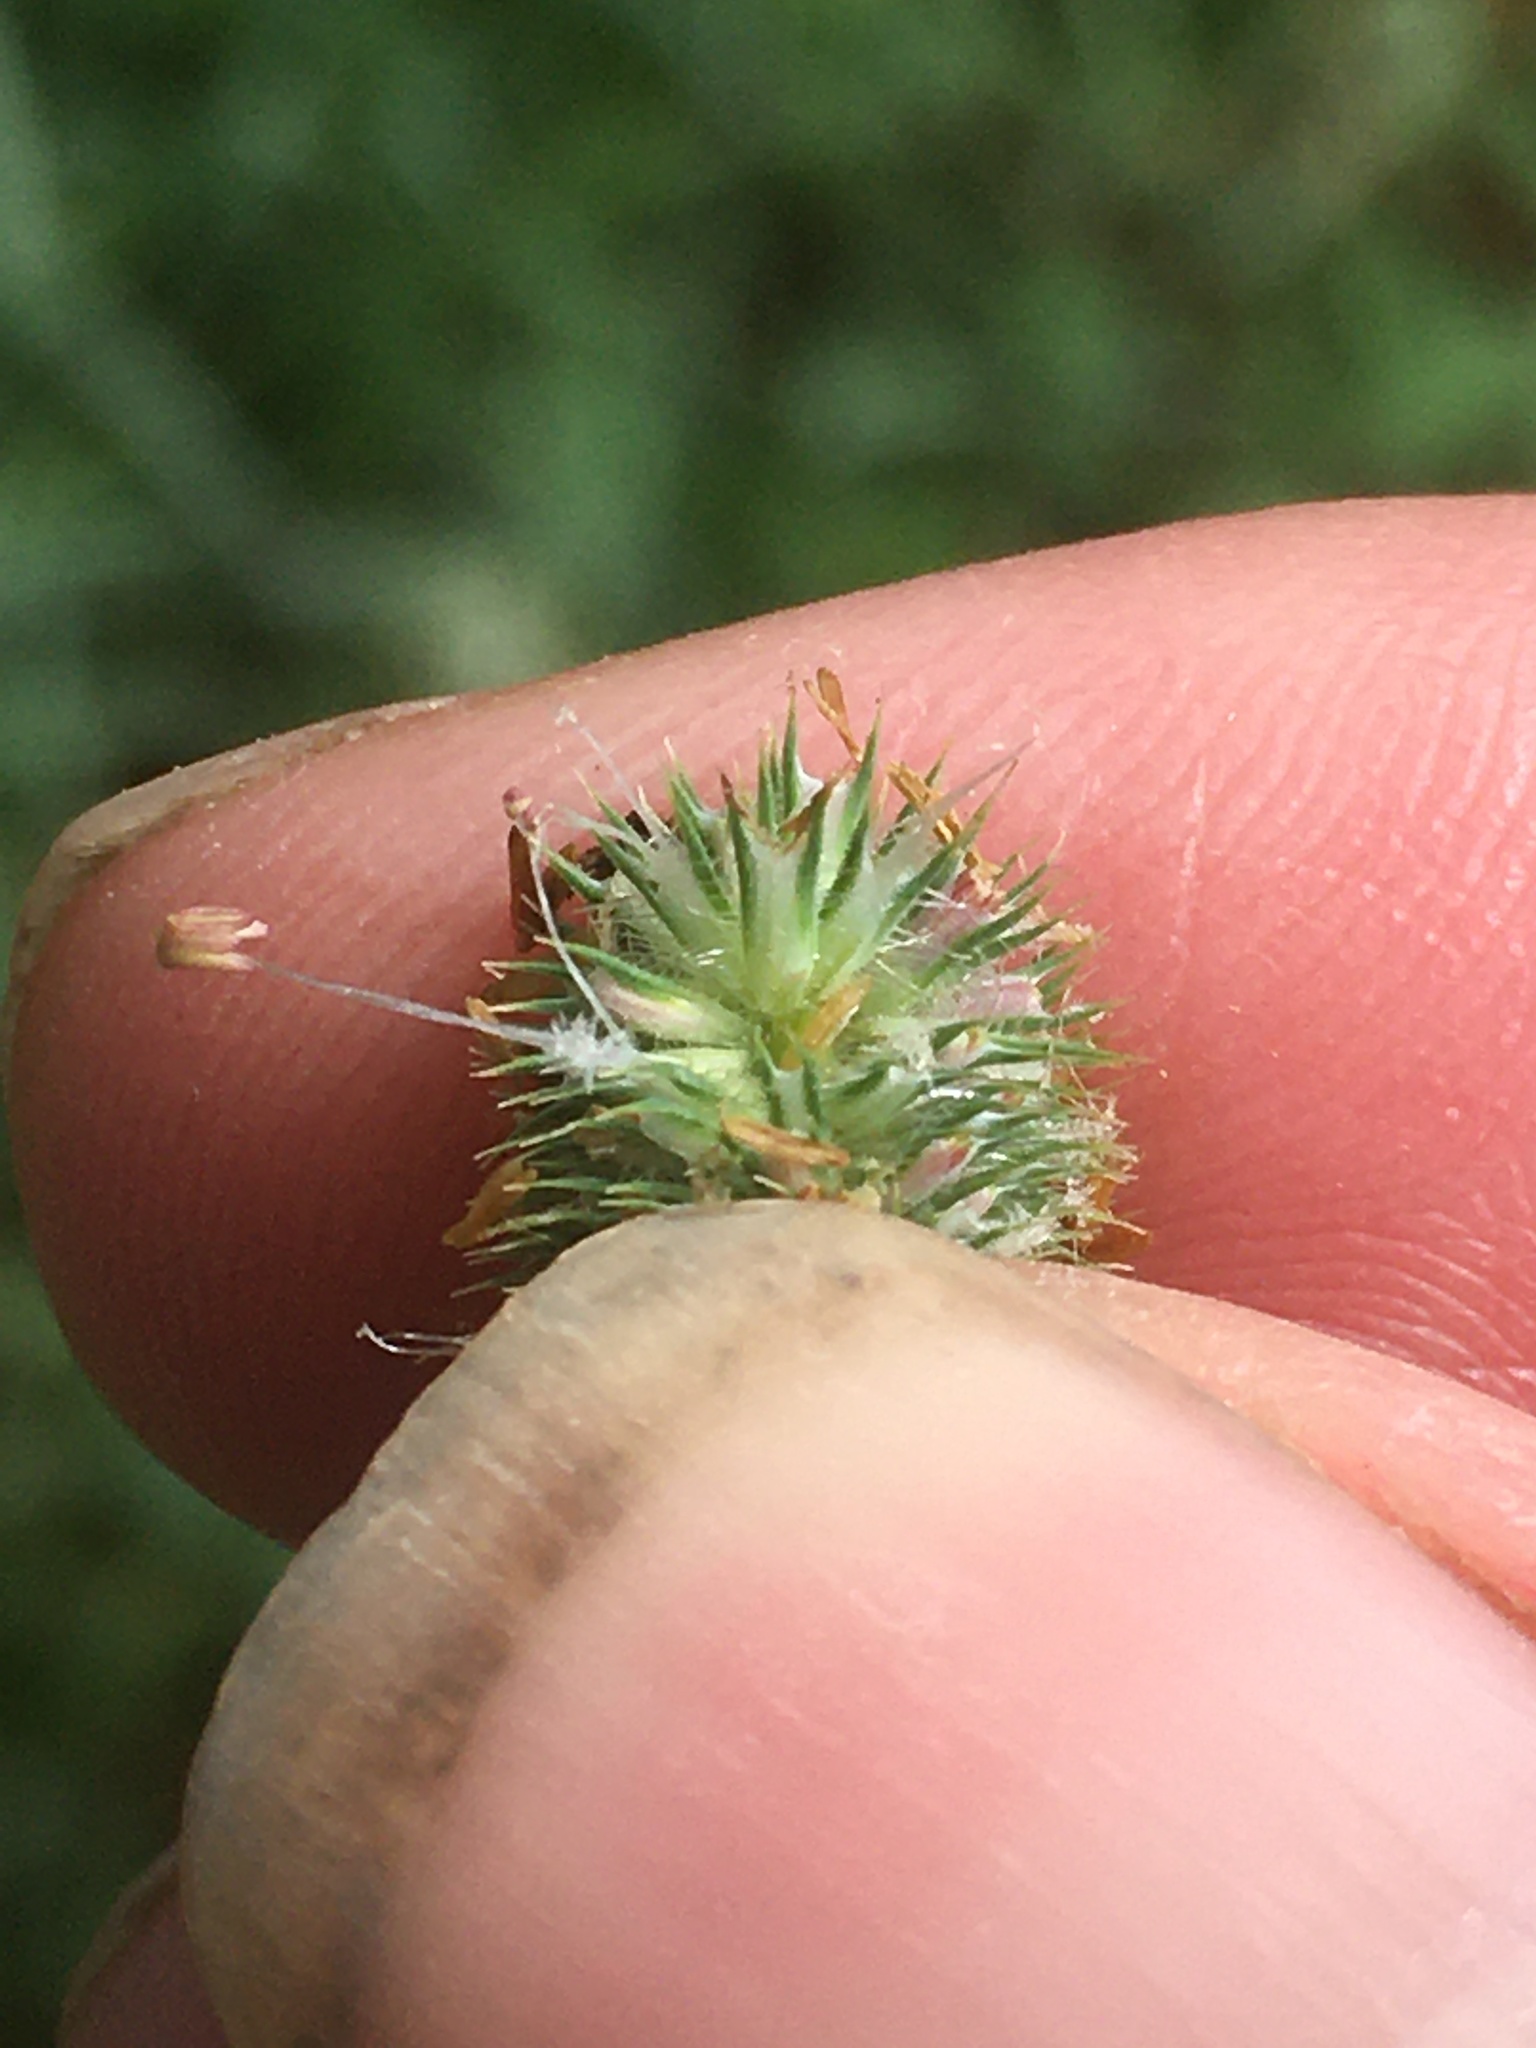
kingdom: Plantae
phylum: Tracheophyta
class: Liliopsida
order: Poales
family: Poaceae
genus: Phleum
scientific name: Phleum pratense
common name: Timothy grass
